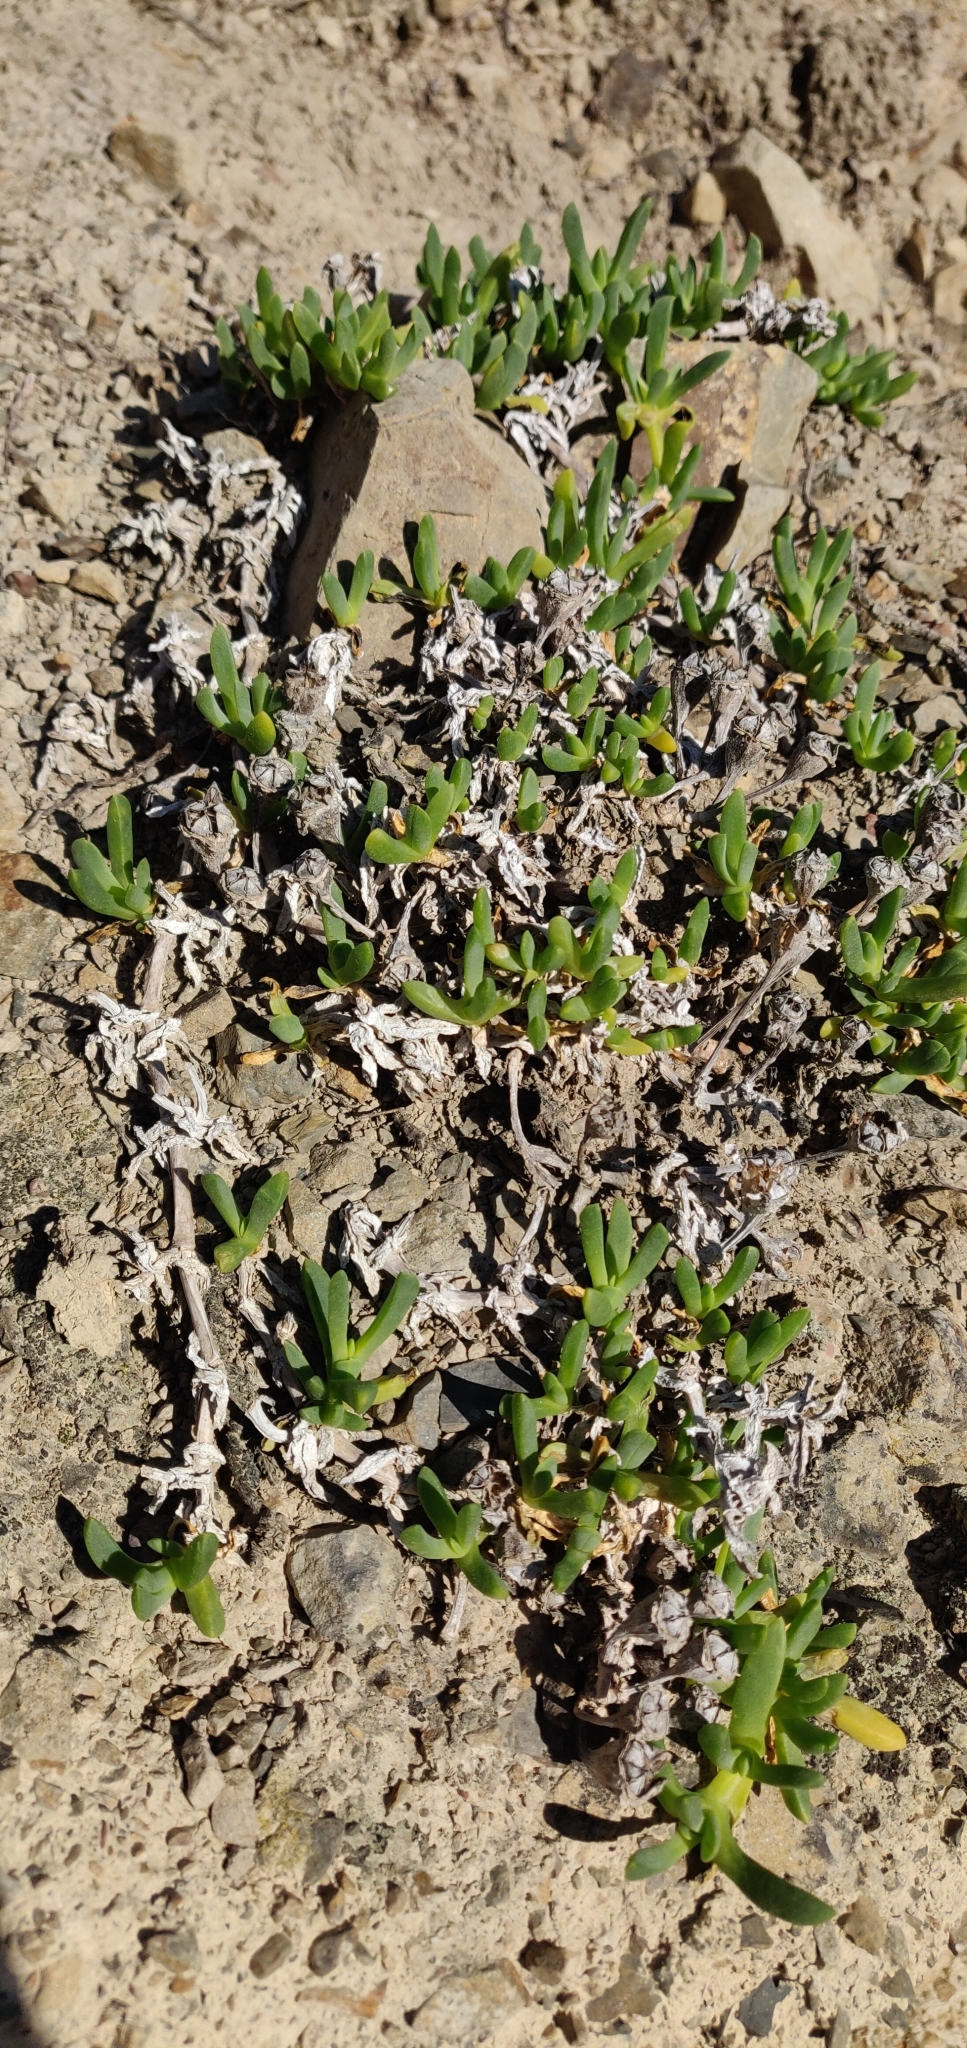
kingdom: Plantae
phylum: Tracheophyta
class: Magnoliopsida
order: Caryophyllales
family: Aizoaceae
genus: Disphyma
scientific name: Disphyma australe
